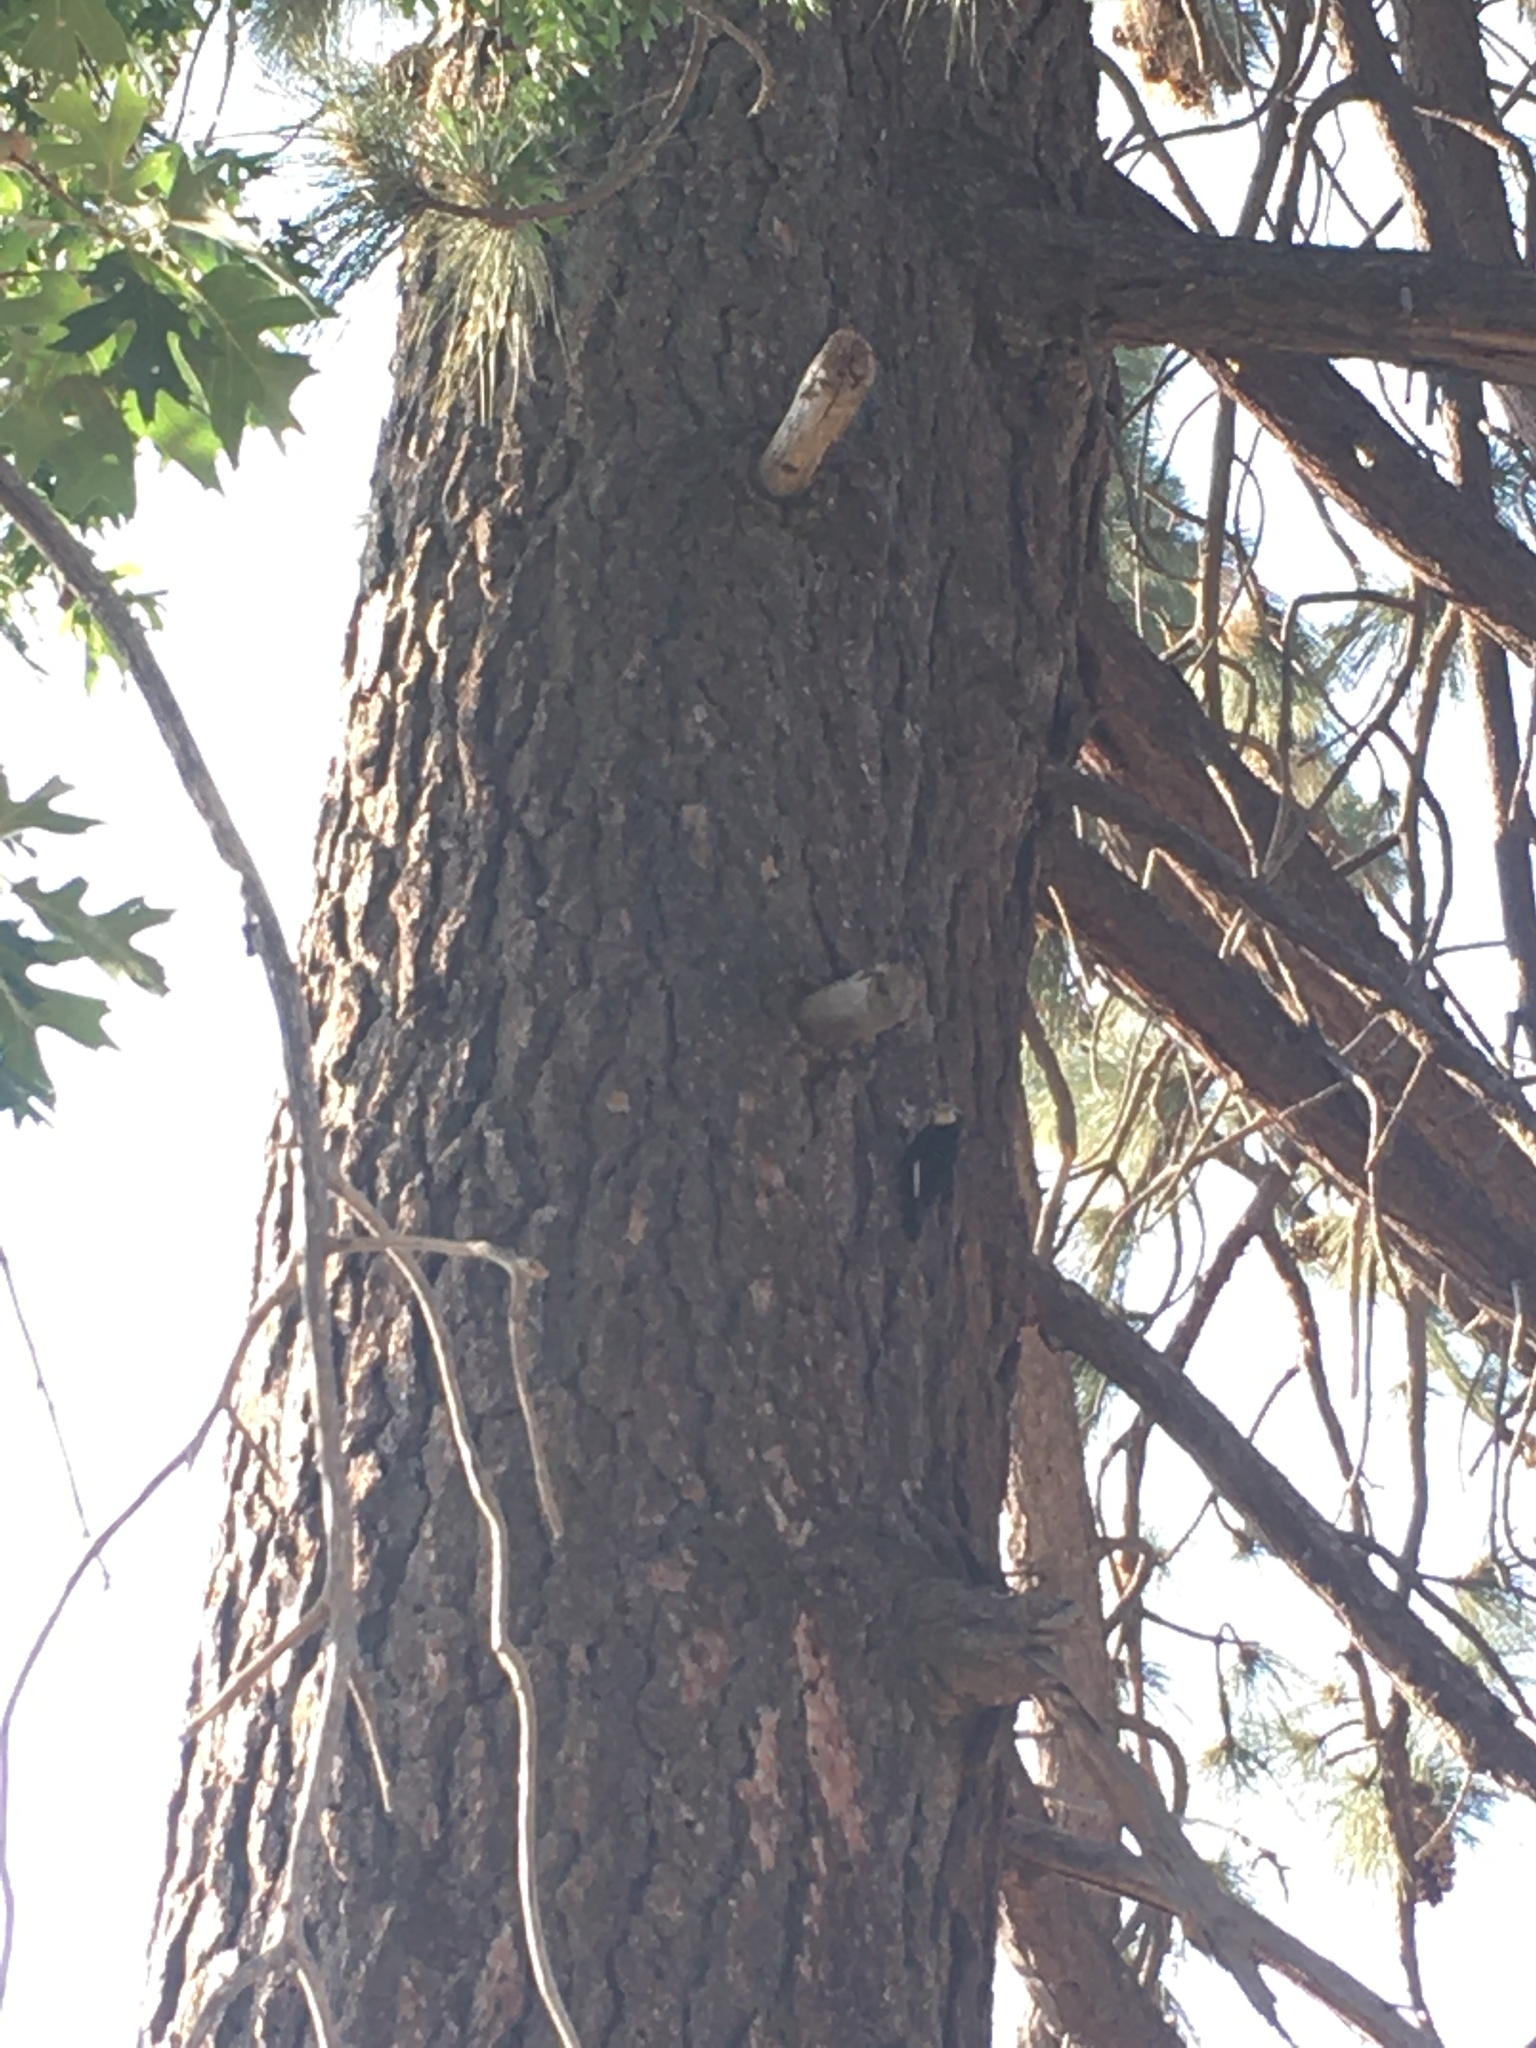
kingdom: Animalia
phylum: Chordata
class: Aves
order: Piciformes
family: Picidae
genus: Leuconotopicus
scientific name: Leuconotopicus albolarvatus
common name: White-headed woodpecker
